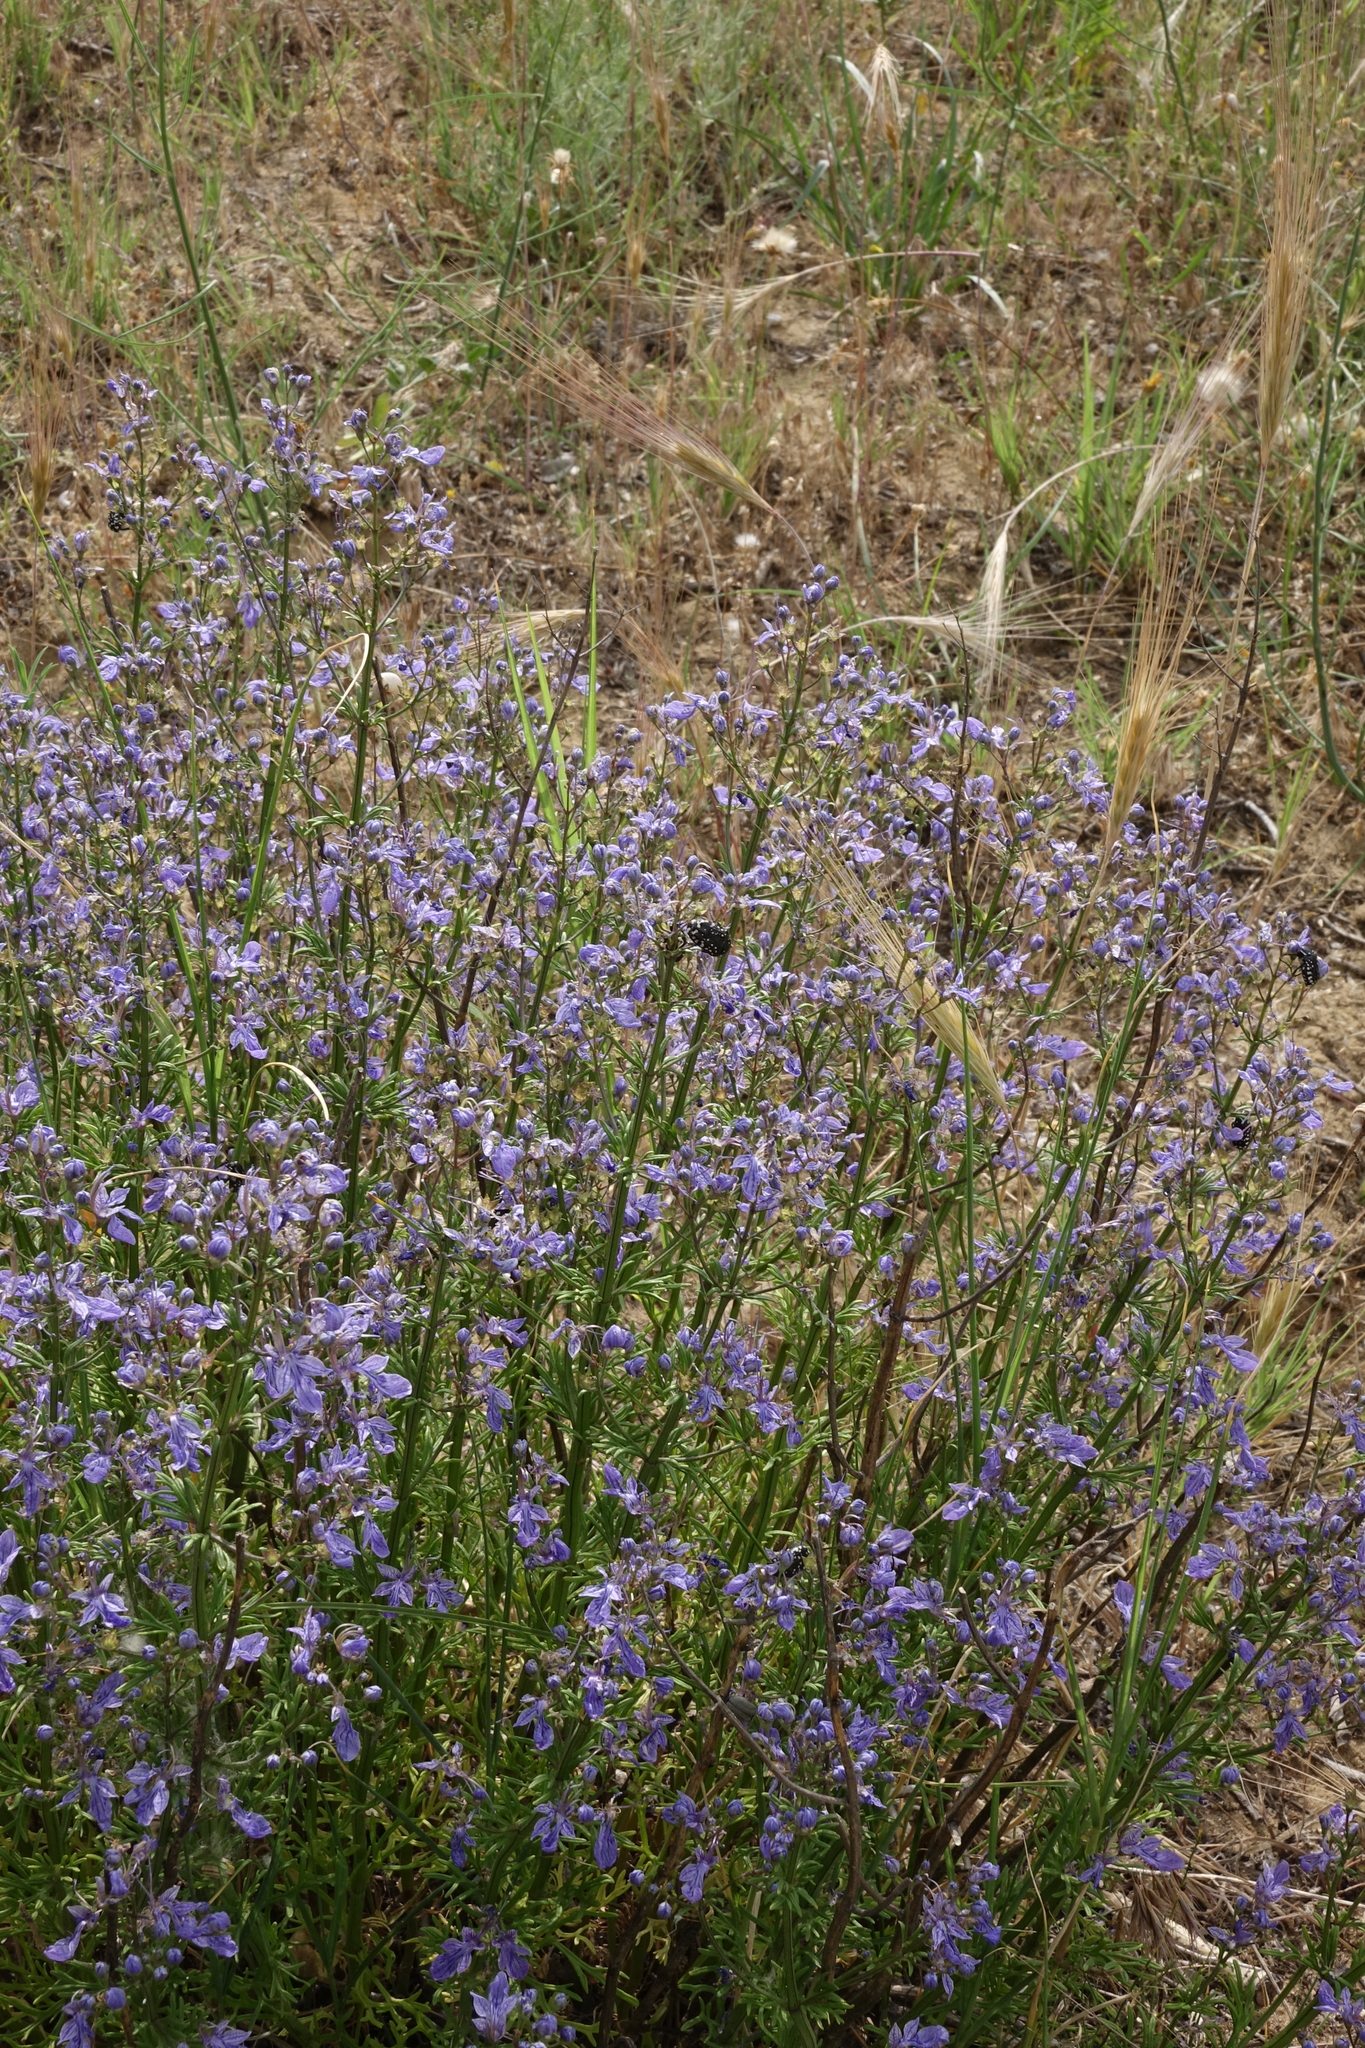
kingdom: Plantae
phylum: Tracheophyta
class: Magnoliopsida
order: Lamiales
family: Lamiaceae
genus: Teucrium
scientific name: Teucrium orientale
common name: Oriental germander
